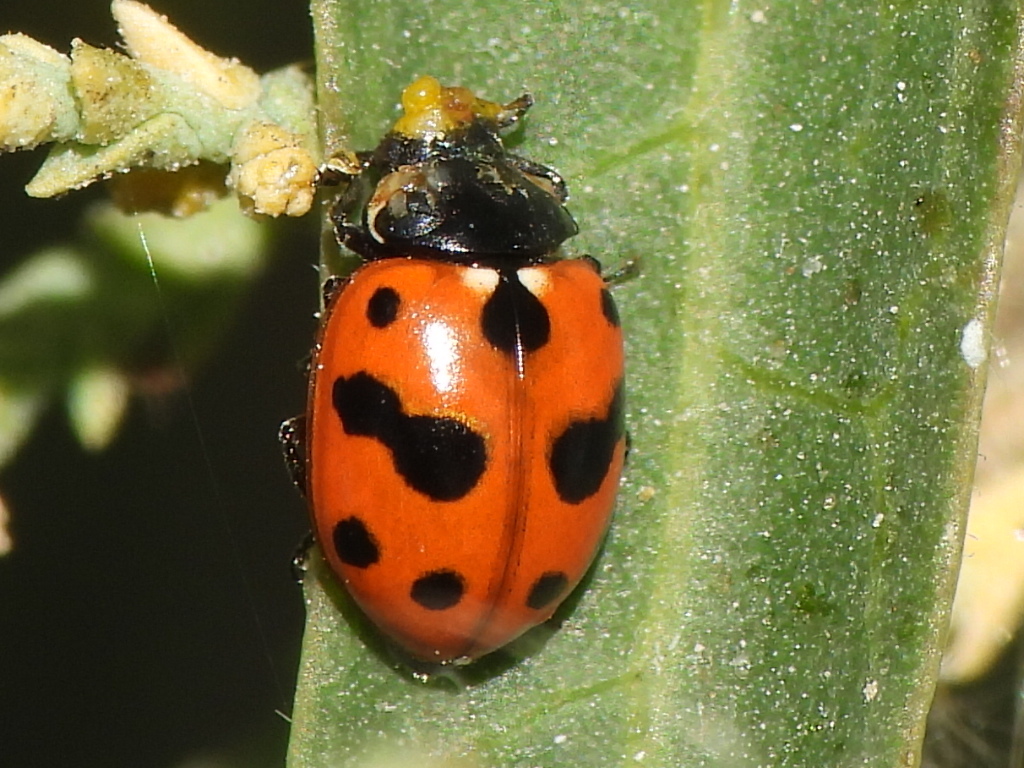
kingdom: Animalia
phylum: Arthropoda
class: Insecta
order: Coleoptera
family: Coccinellidae
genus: Hippodamia
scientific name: Hippodamia variegata
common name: Ladybird beetle
